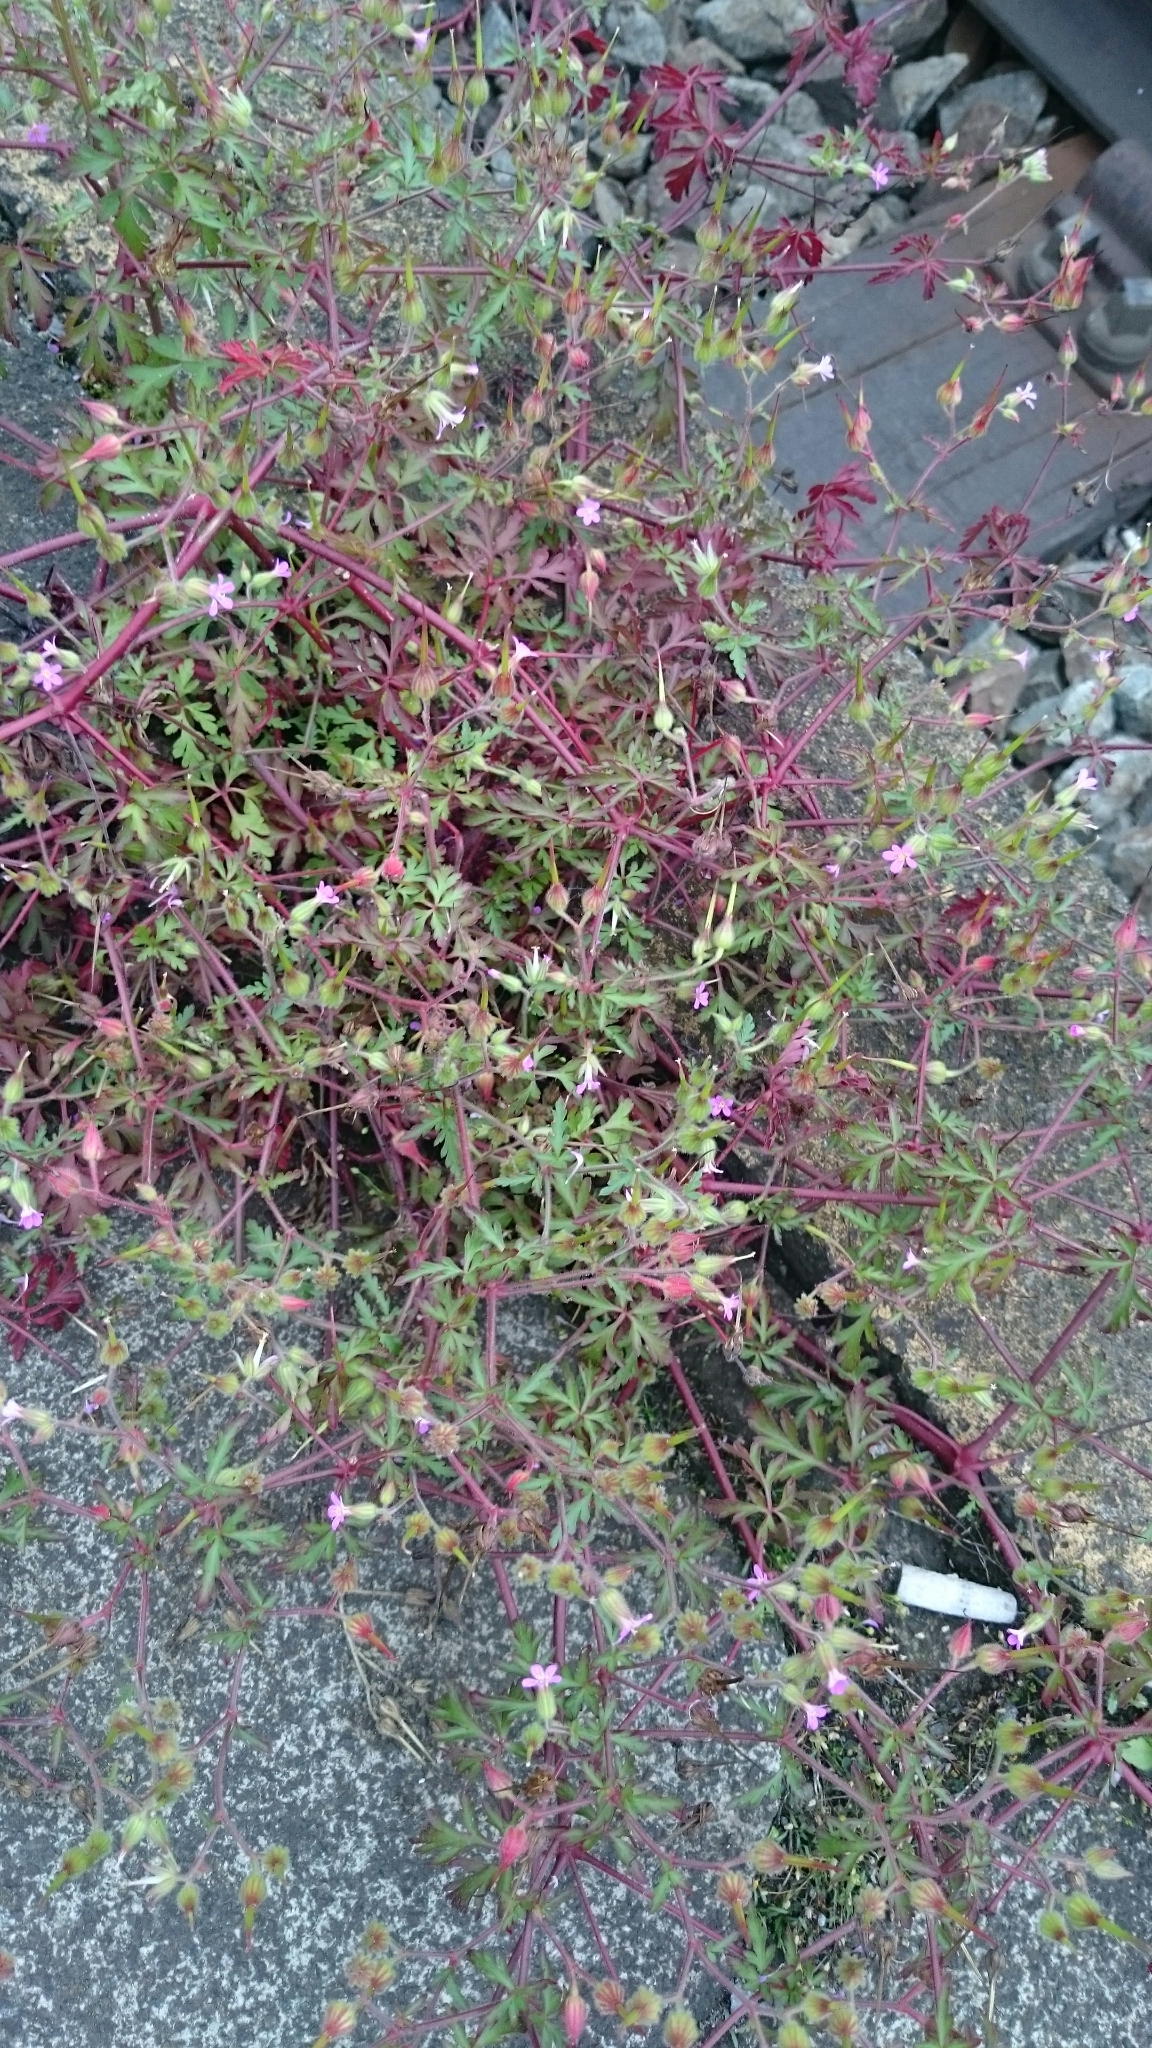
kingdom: Plantae
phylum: Tracheophyta
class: Magnoliopsida
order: Geraniales
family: Geraniaceae
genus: Geranium
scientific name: Geranium purpureum
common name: Little-robin
